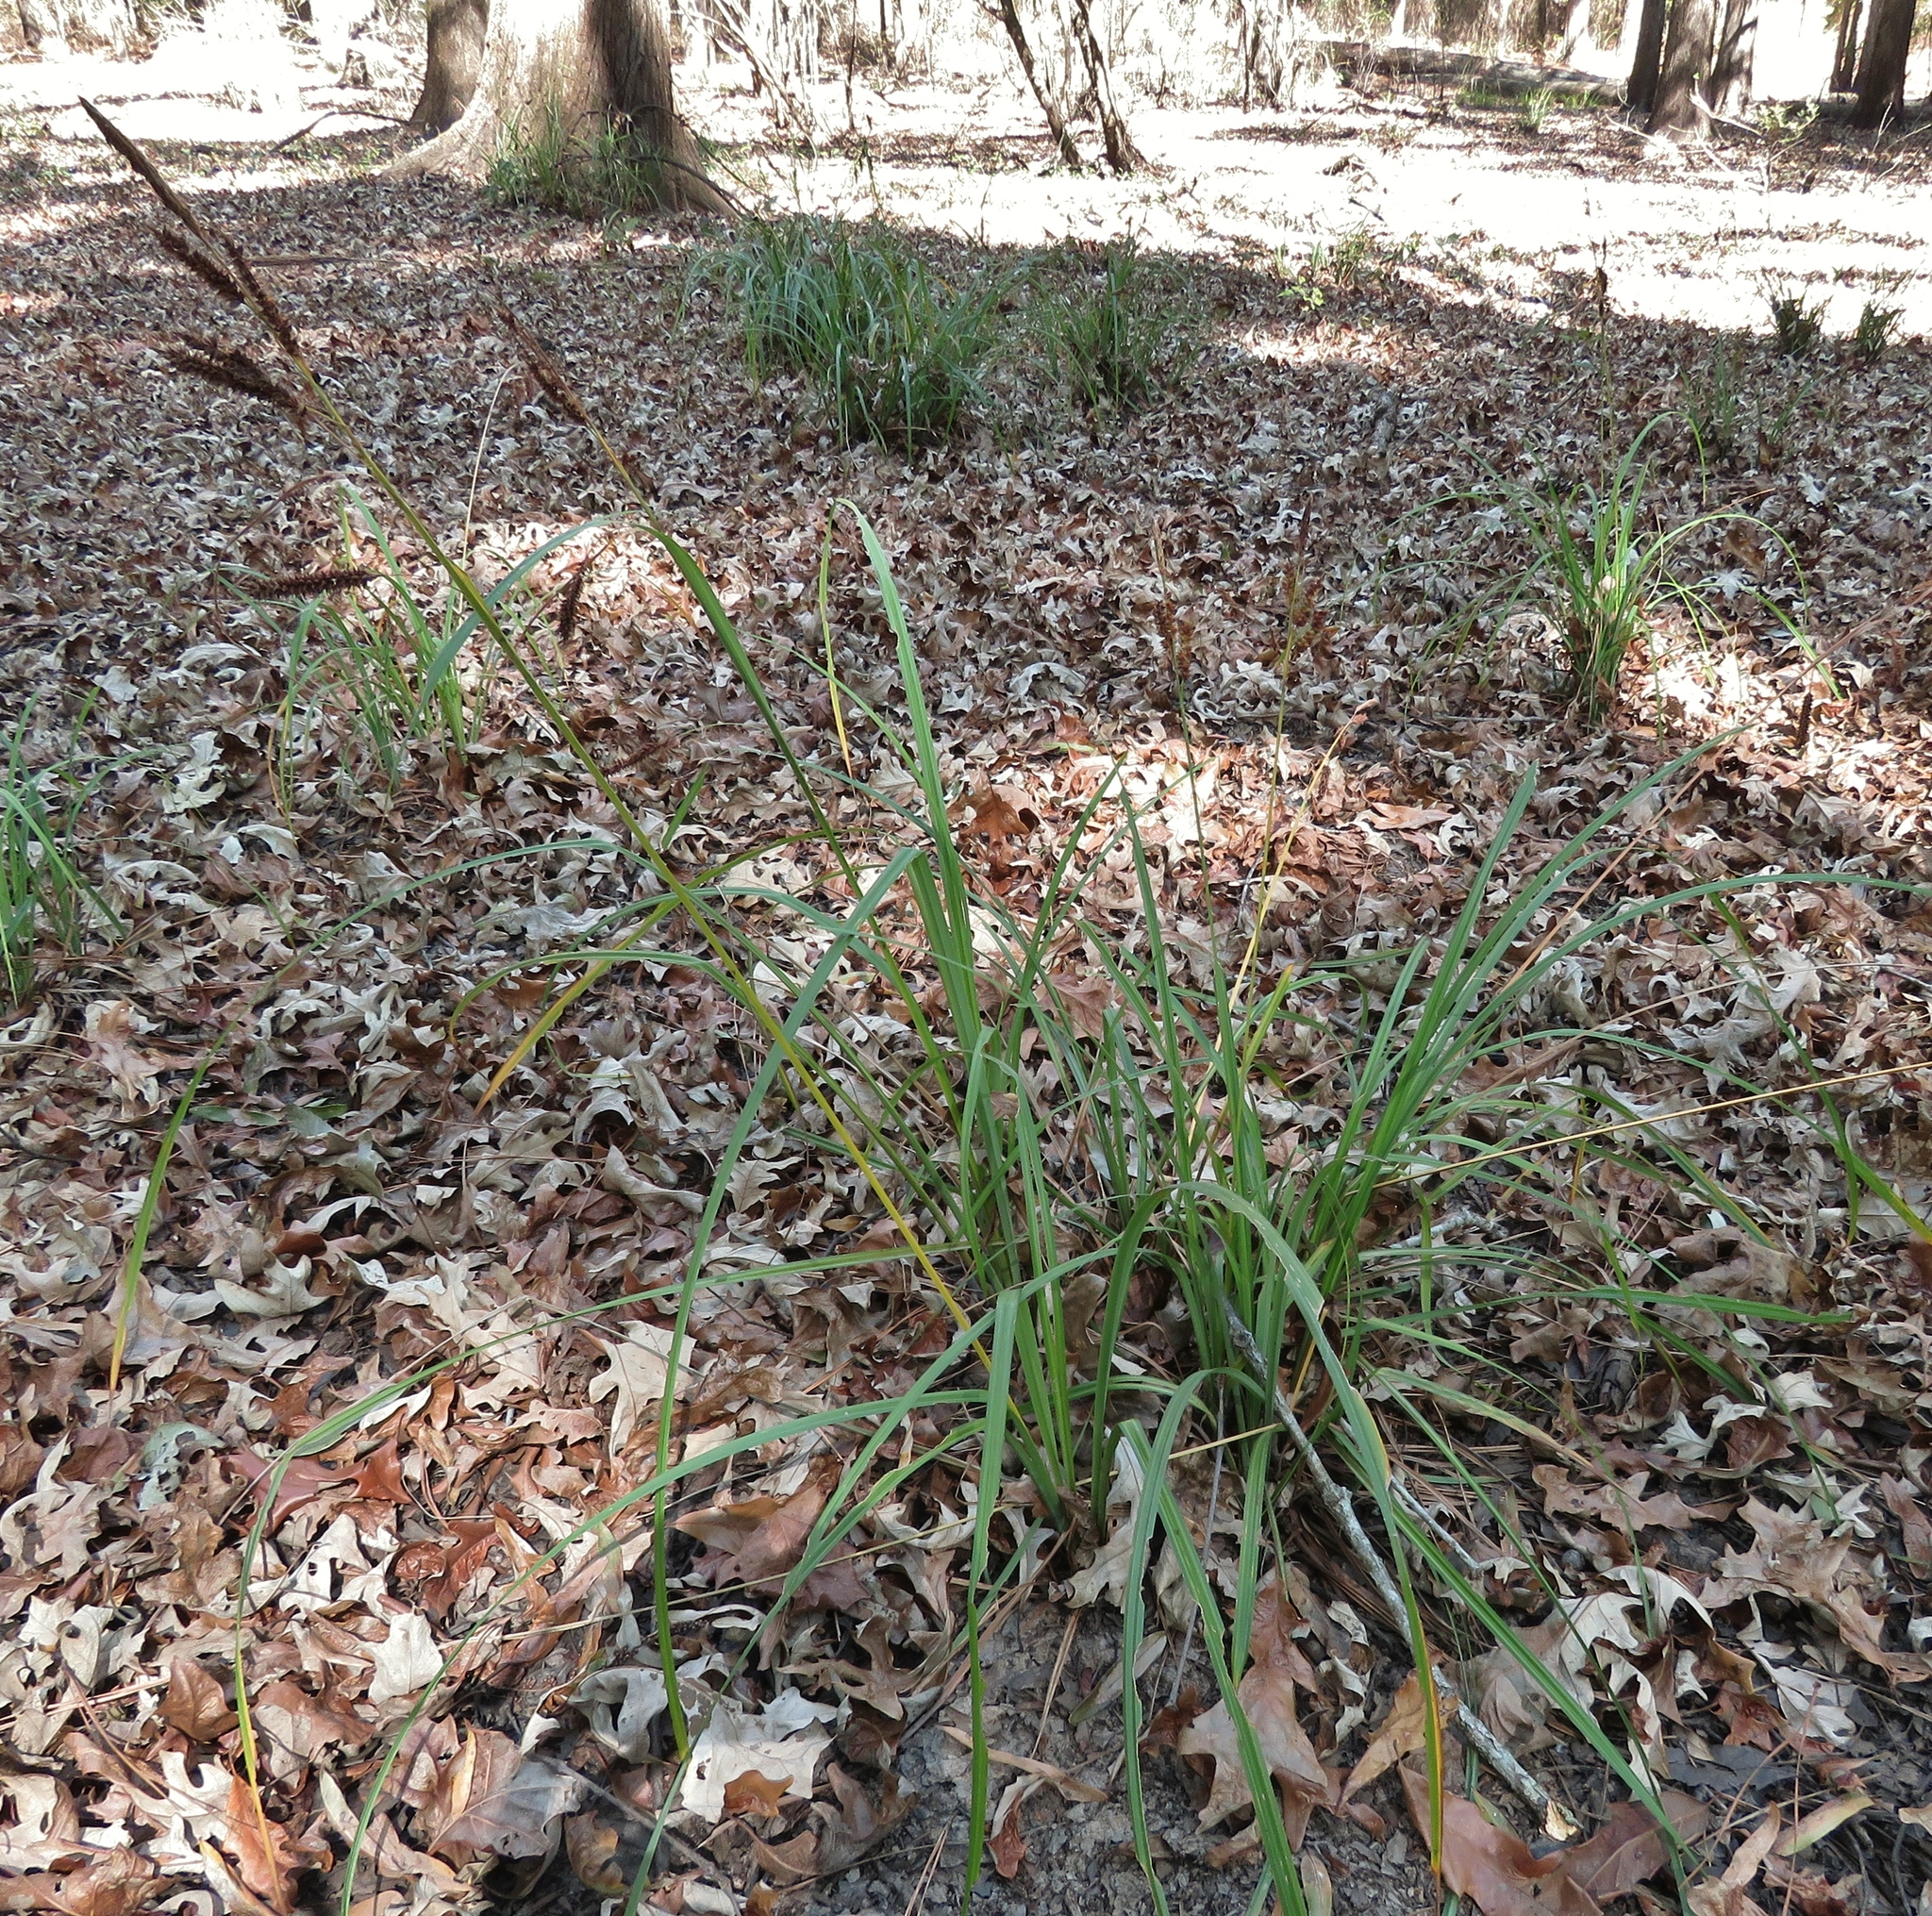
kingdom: Plantae
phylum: Tracheophyta
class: Liliopsida
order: Poales
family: Cyperaceae
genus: Carex
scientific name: Carex joorii
